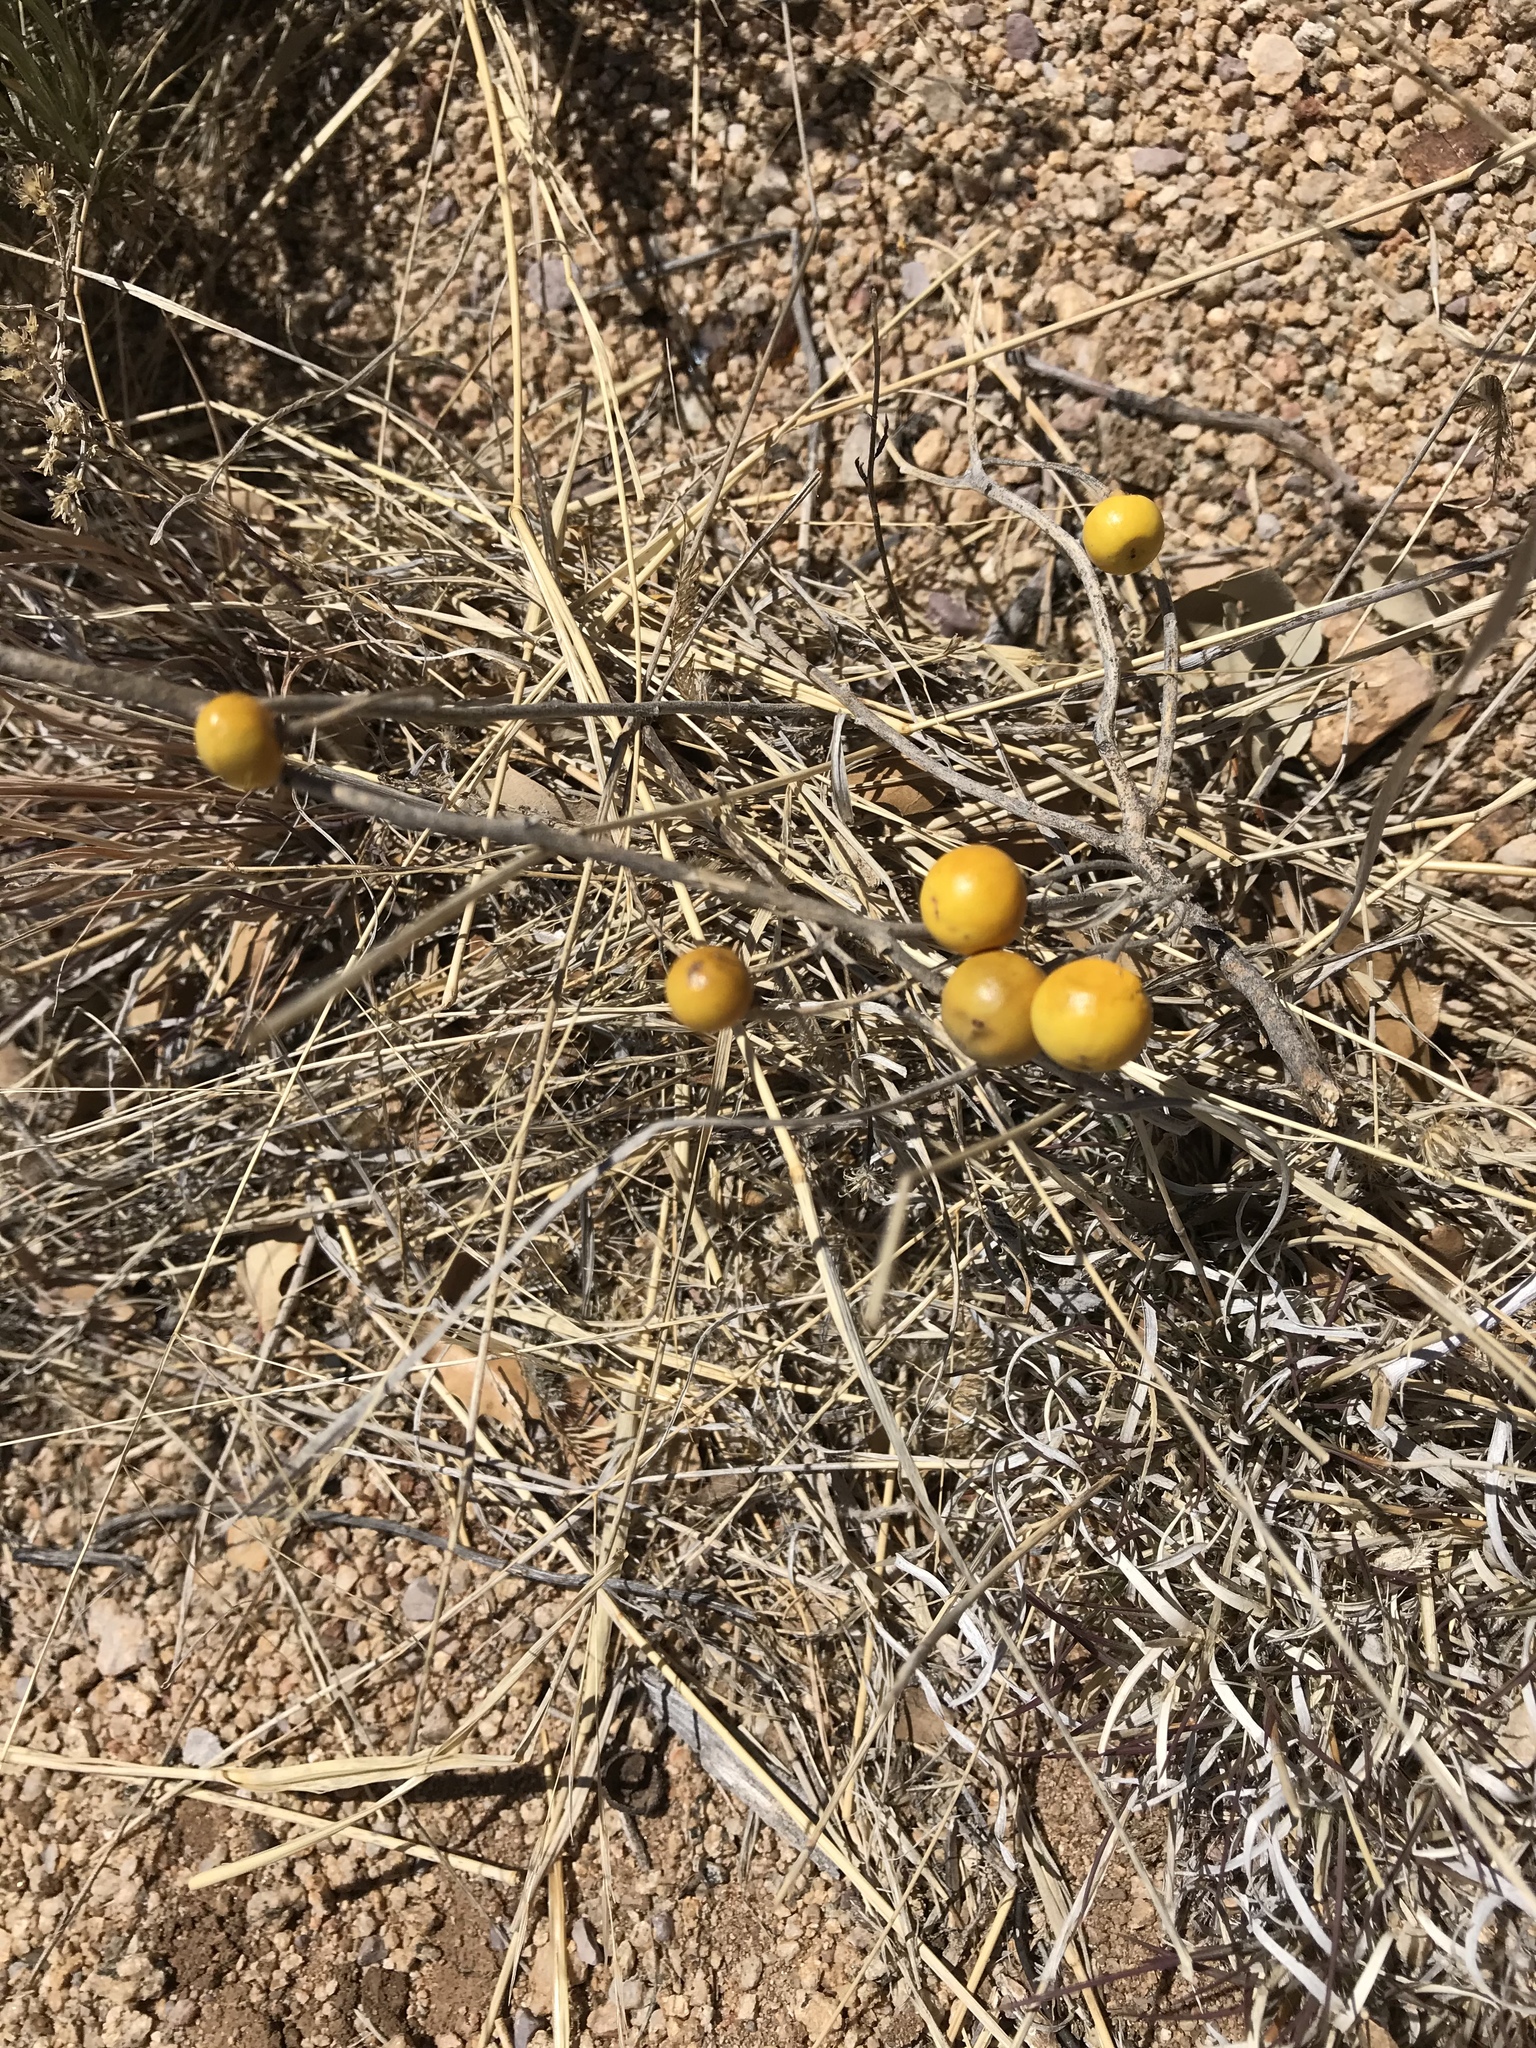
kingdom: Plantae
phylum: Tracheophyta
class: Magnoliopsida
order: Solanales
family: Solanaceae
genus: Solanum
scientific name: Solanum elaeagnifolium
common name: Silverleaf nightshade
